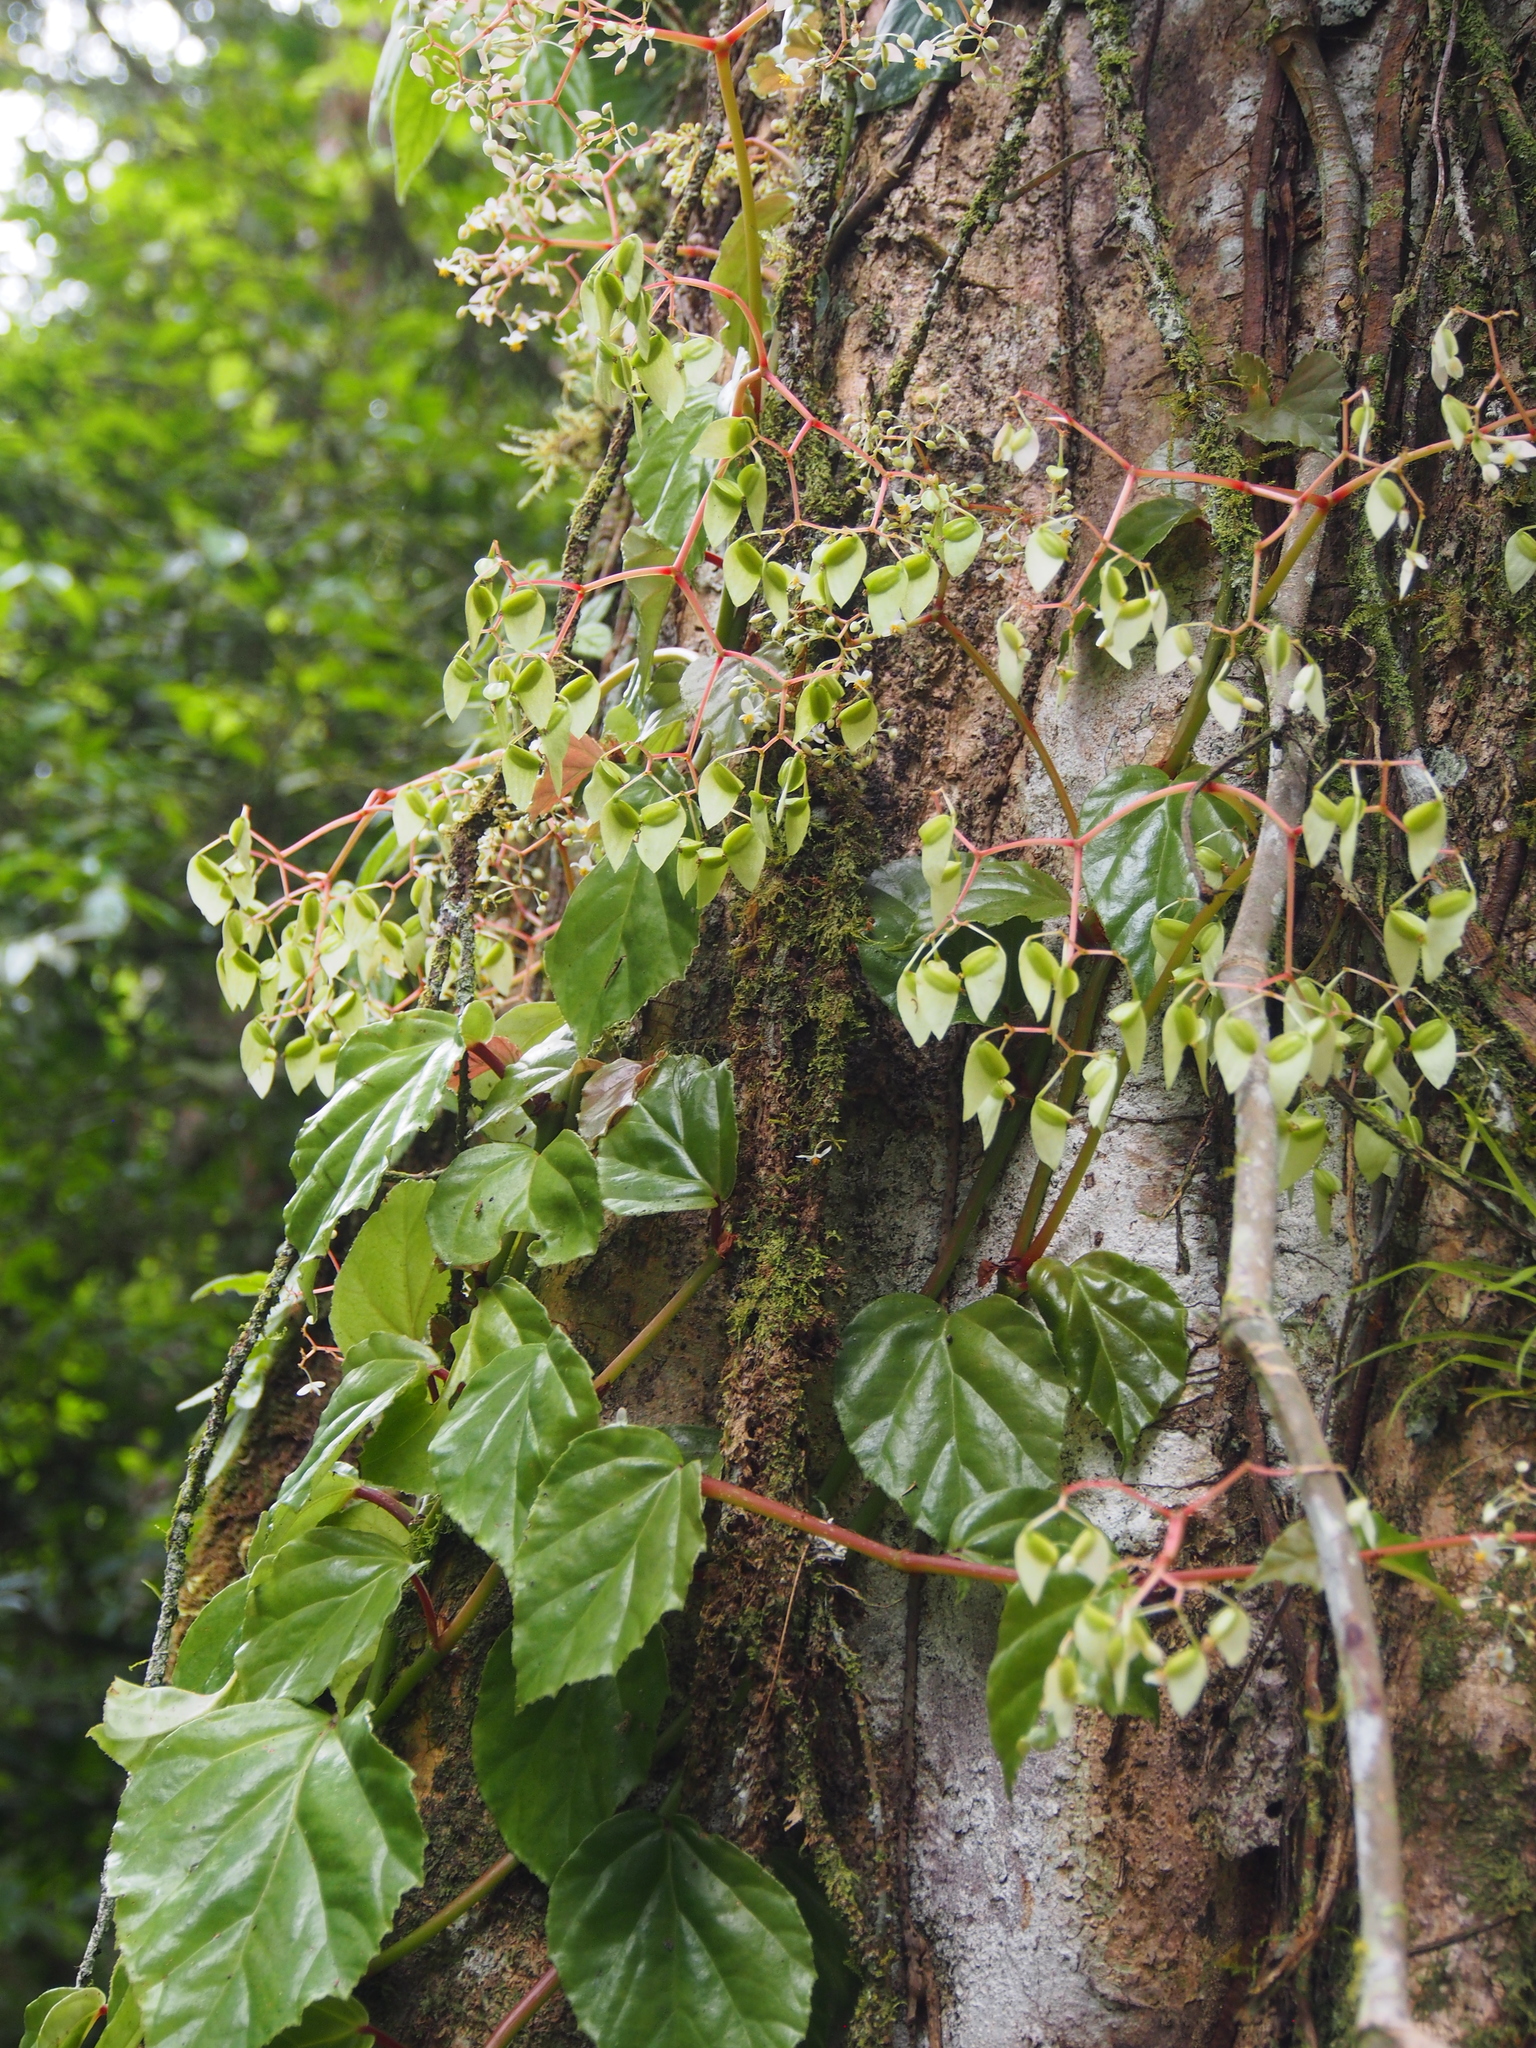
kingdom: Plantae
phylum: Tracheophyta
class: Magnoliopsida
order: Cucurbitales
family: Begoniaceae
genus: Begonia
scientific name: Begonia glabra
